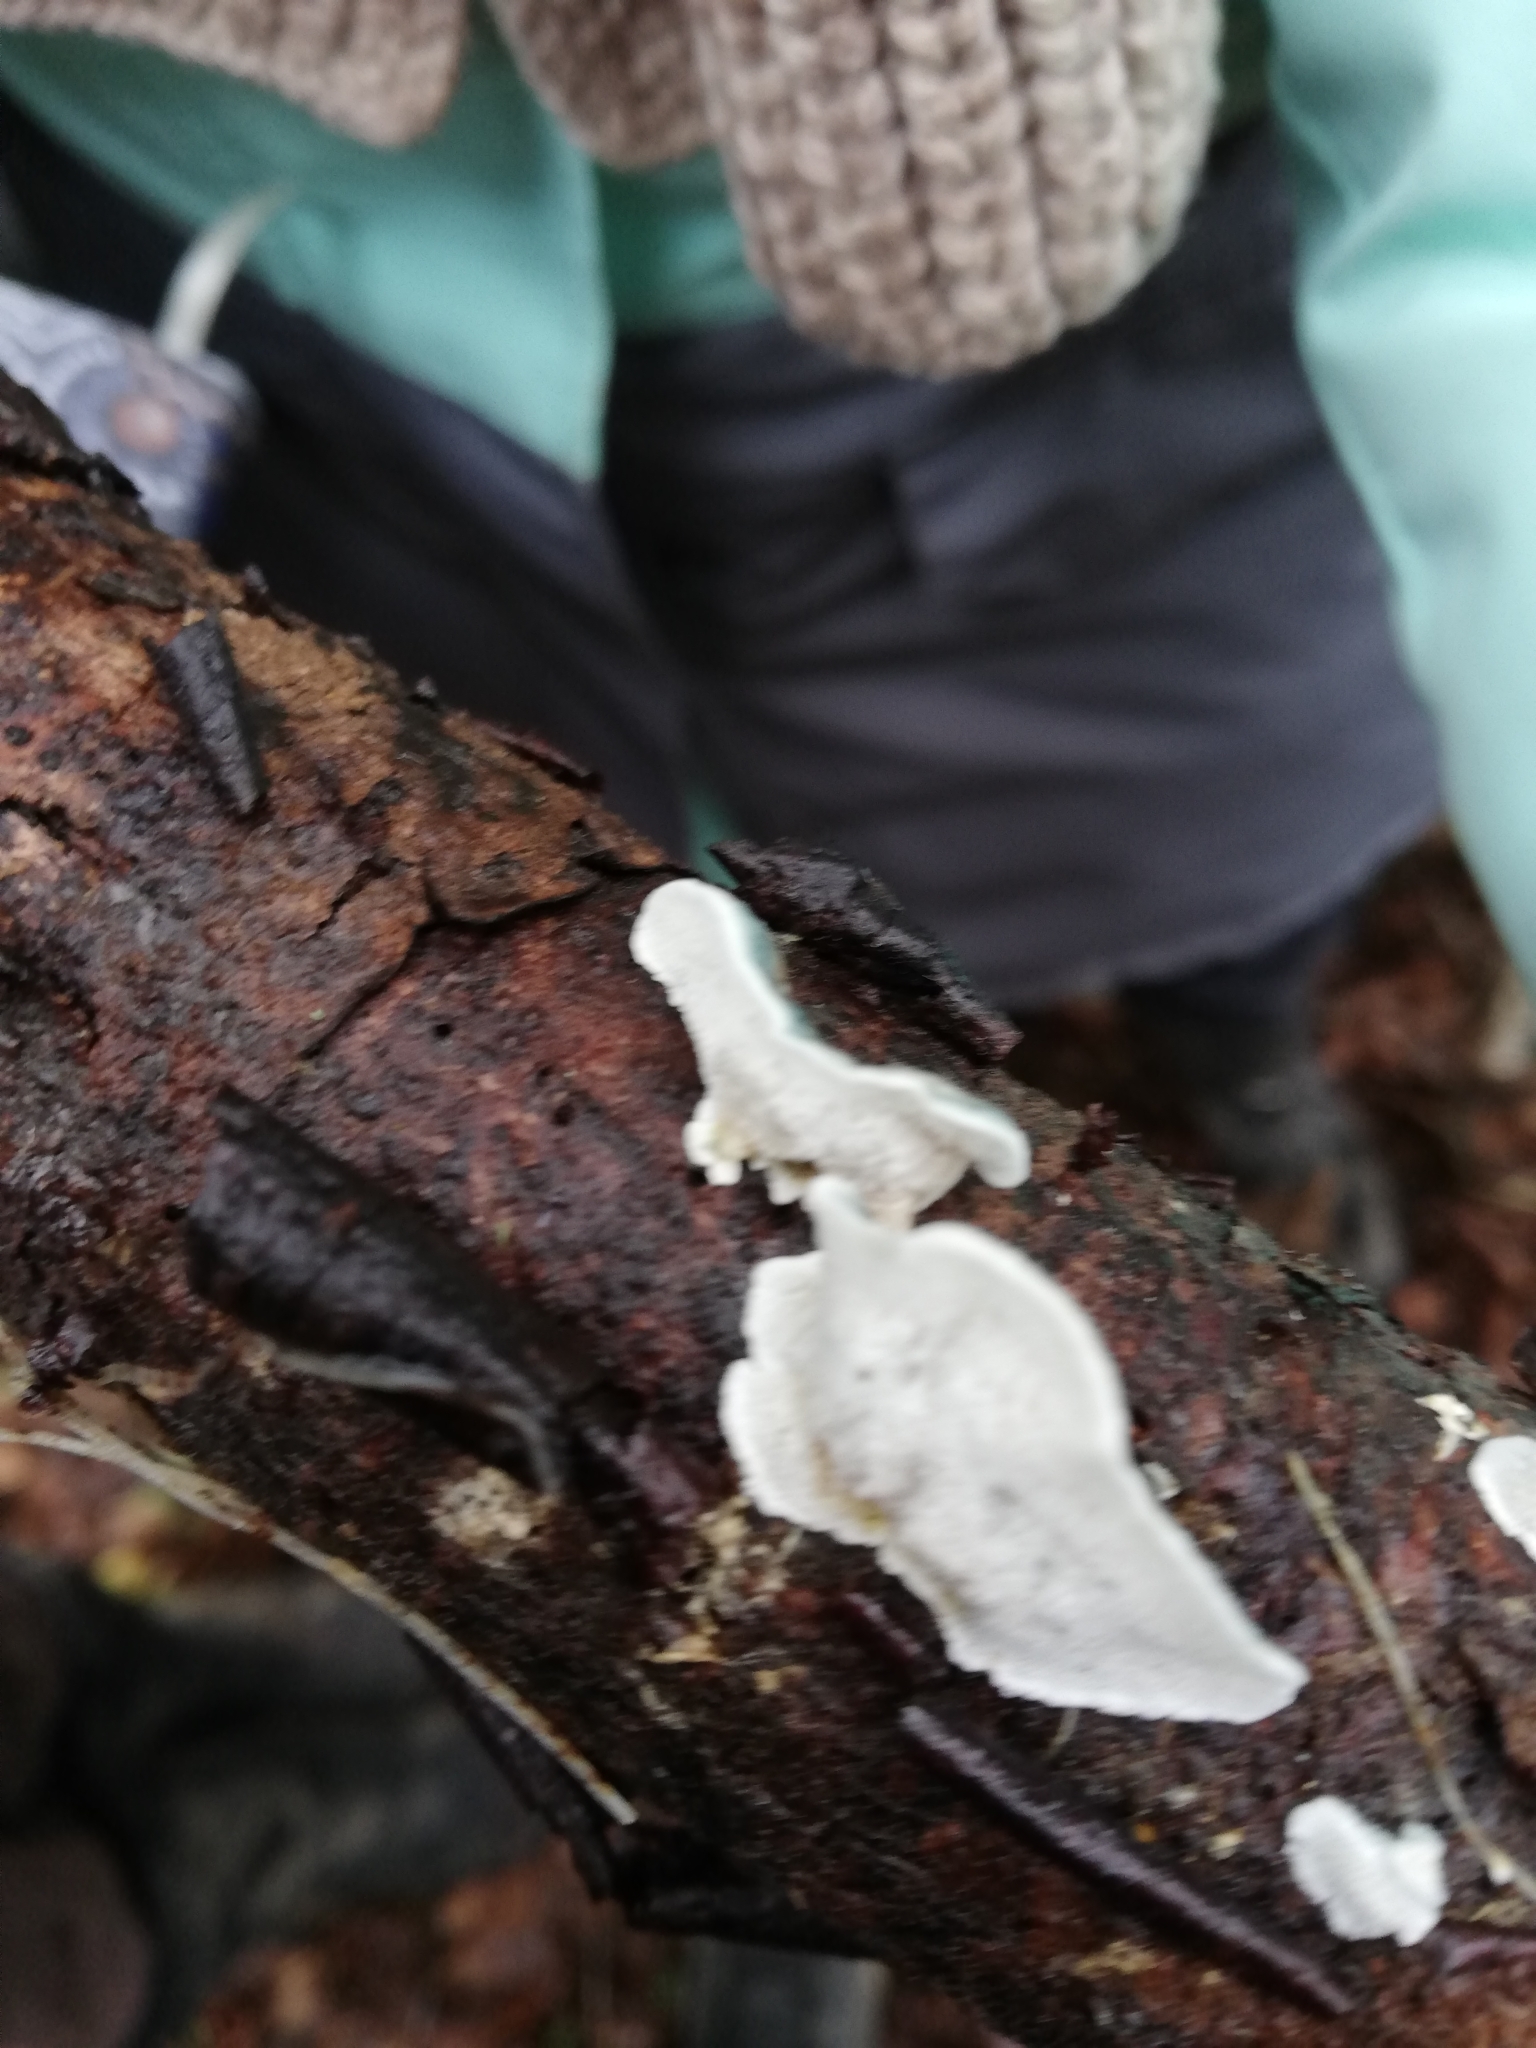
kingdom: Fungi
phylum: Basidiomycota
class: Agaricomycetes
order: Polyporales
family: Polyporaceae
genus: Cyanosporus
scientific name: Cyanosporus alni
